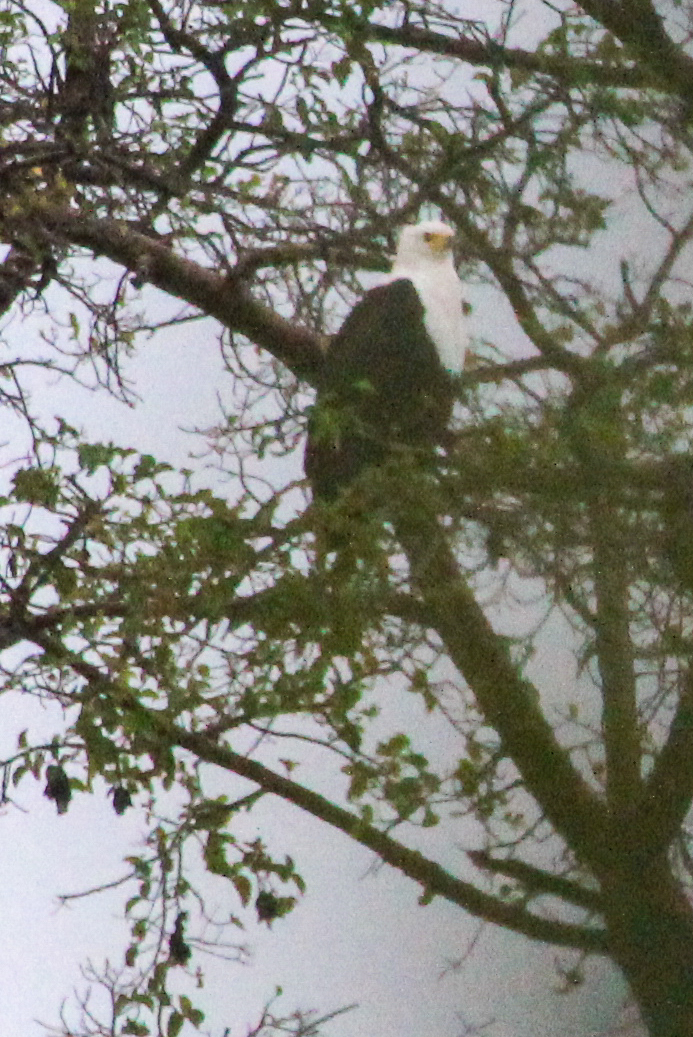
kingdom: Animalia
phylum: Chordata
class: Aves
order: Accipitriformes
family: Accipitridae
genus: Haliaeetus
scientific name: Haliaeetus vocifer
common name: African fish eagle
